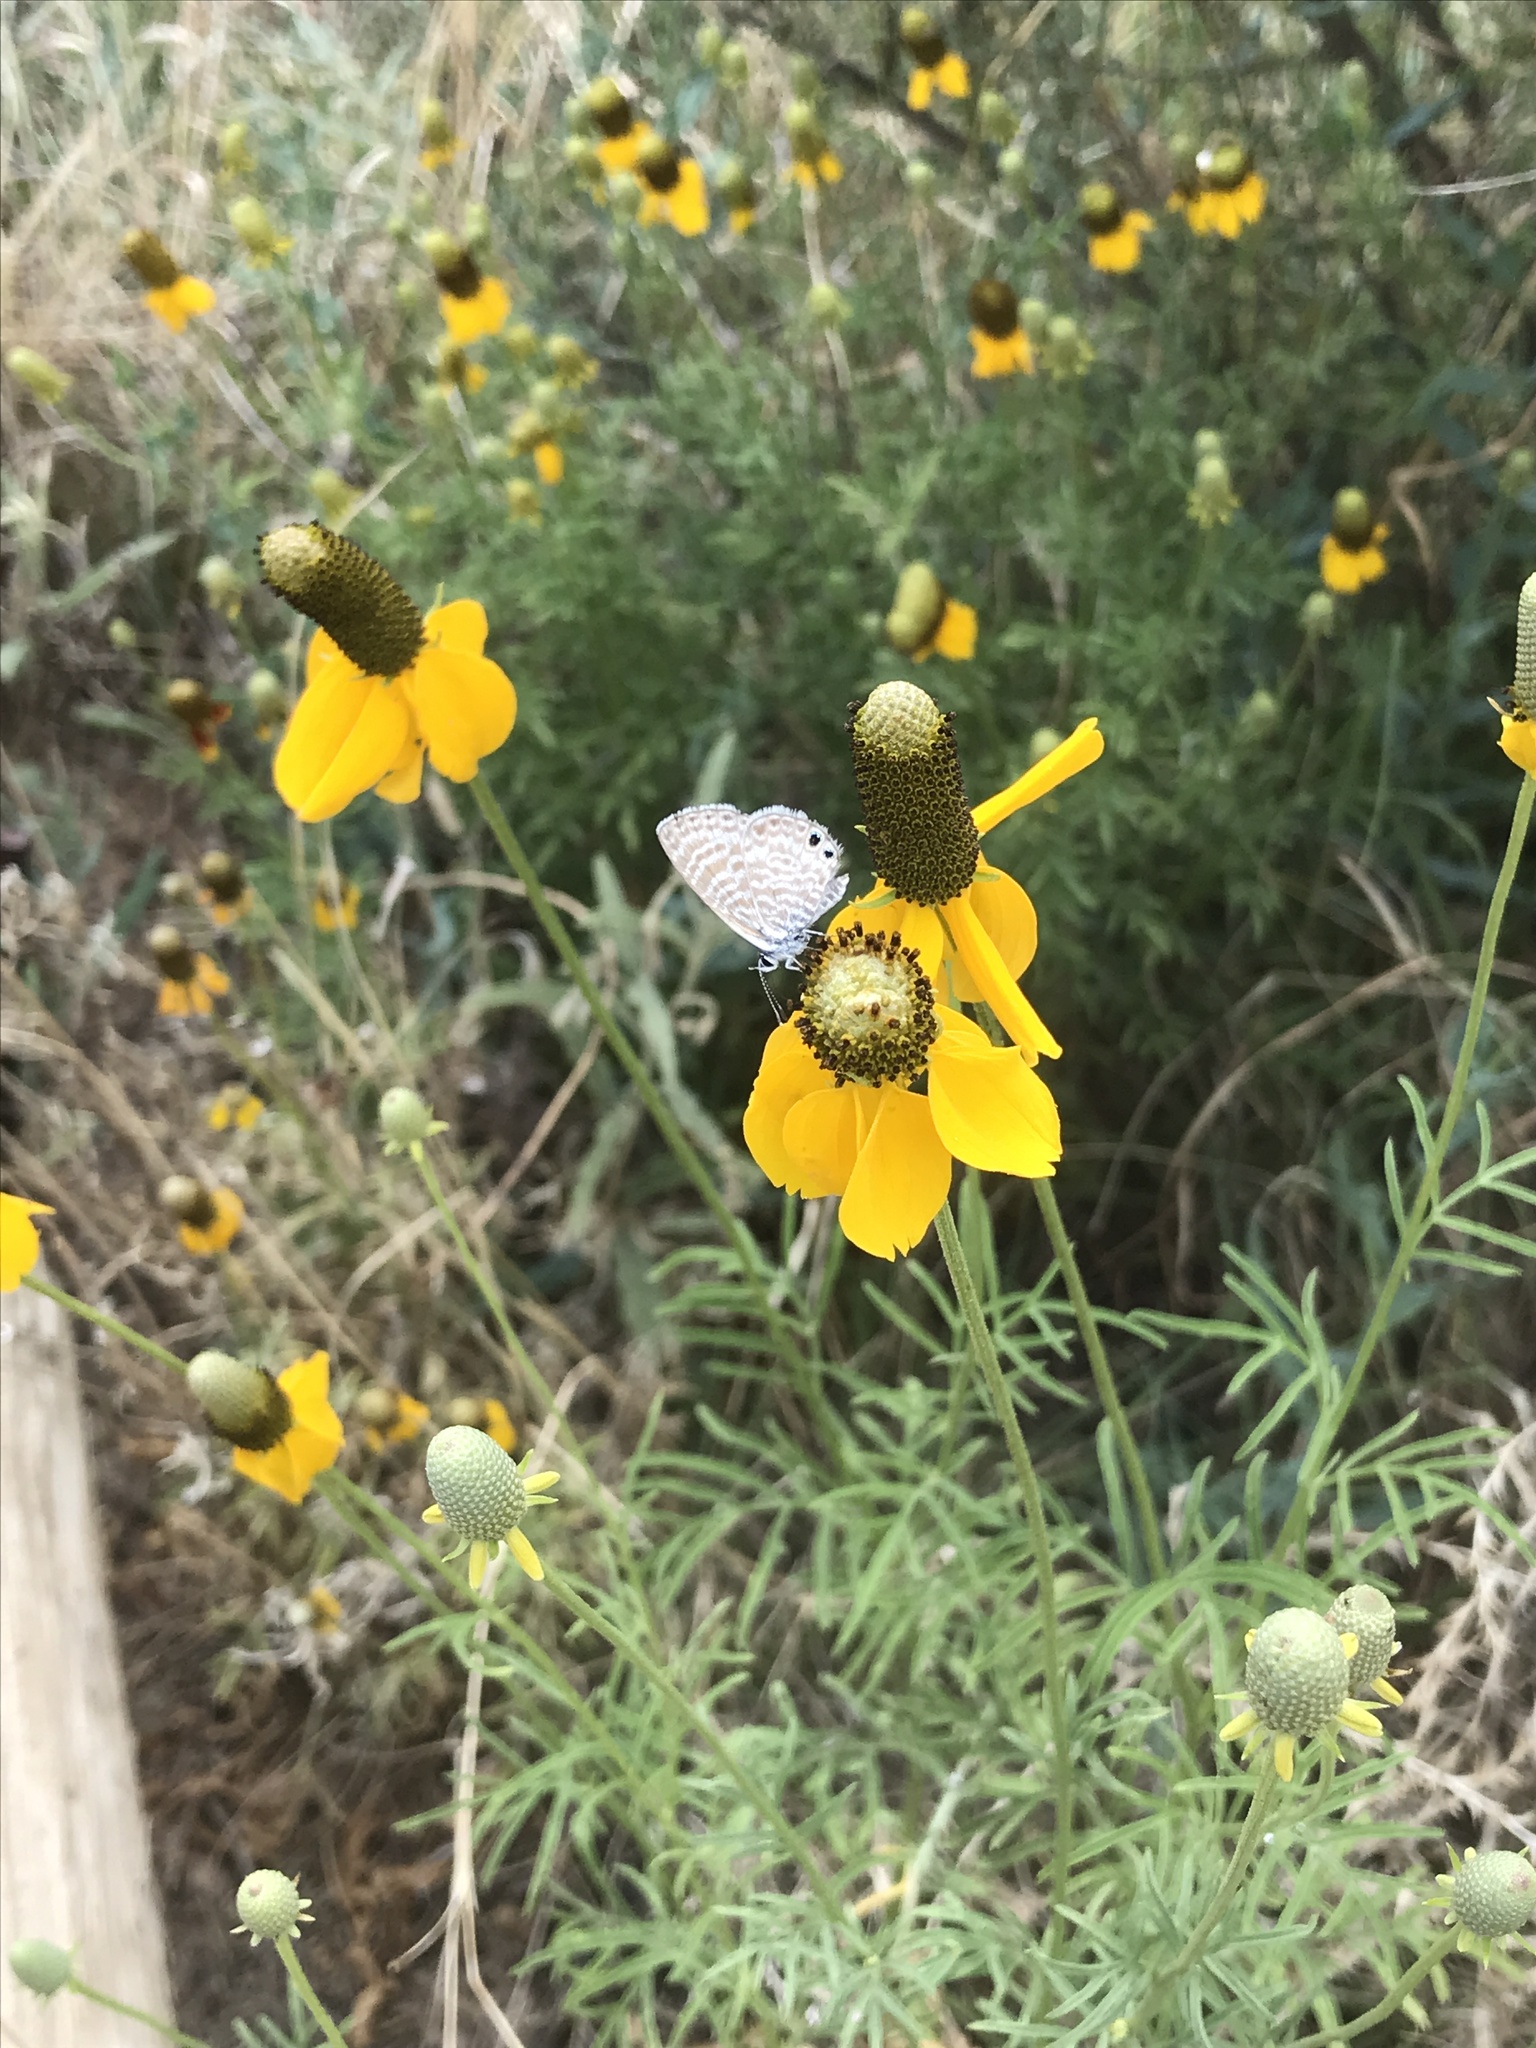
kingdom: Animalia
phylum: Arthropoda
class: Insecta
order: Lepidoptera
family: Lycaenidae
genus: Leptotes
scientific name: Leptotes marina
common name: Marine blue
